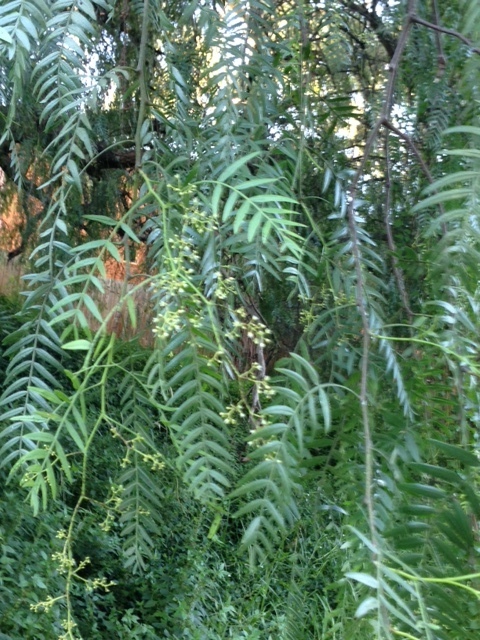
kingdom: Plantae
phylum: Tracheophyta
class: Magnoliopsida
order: Sapindales
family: Anacardiaceae
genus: Schinus
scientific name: Schinus molle
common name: Peruvian peppertree
